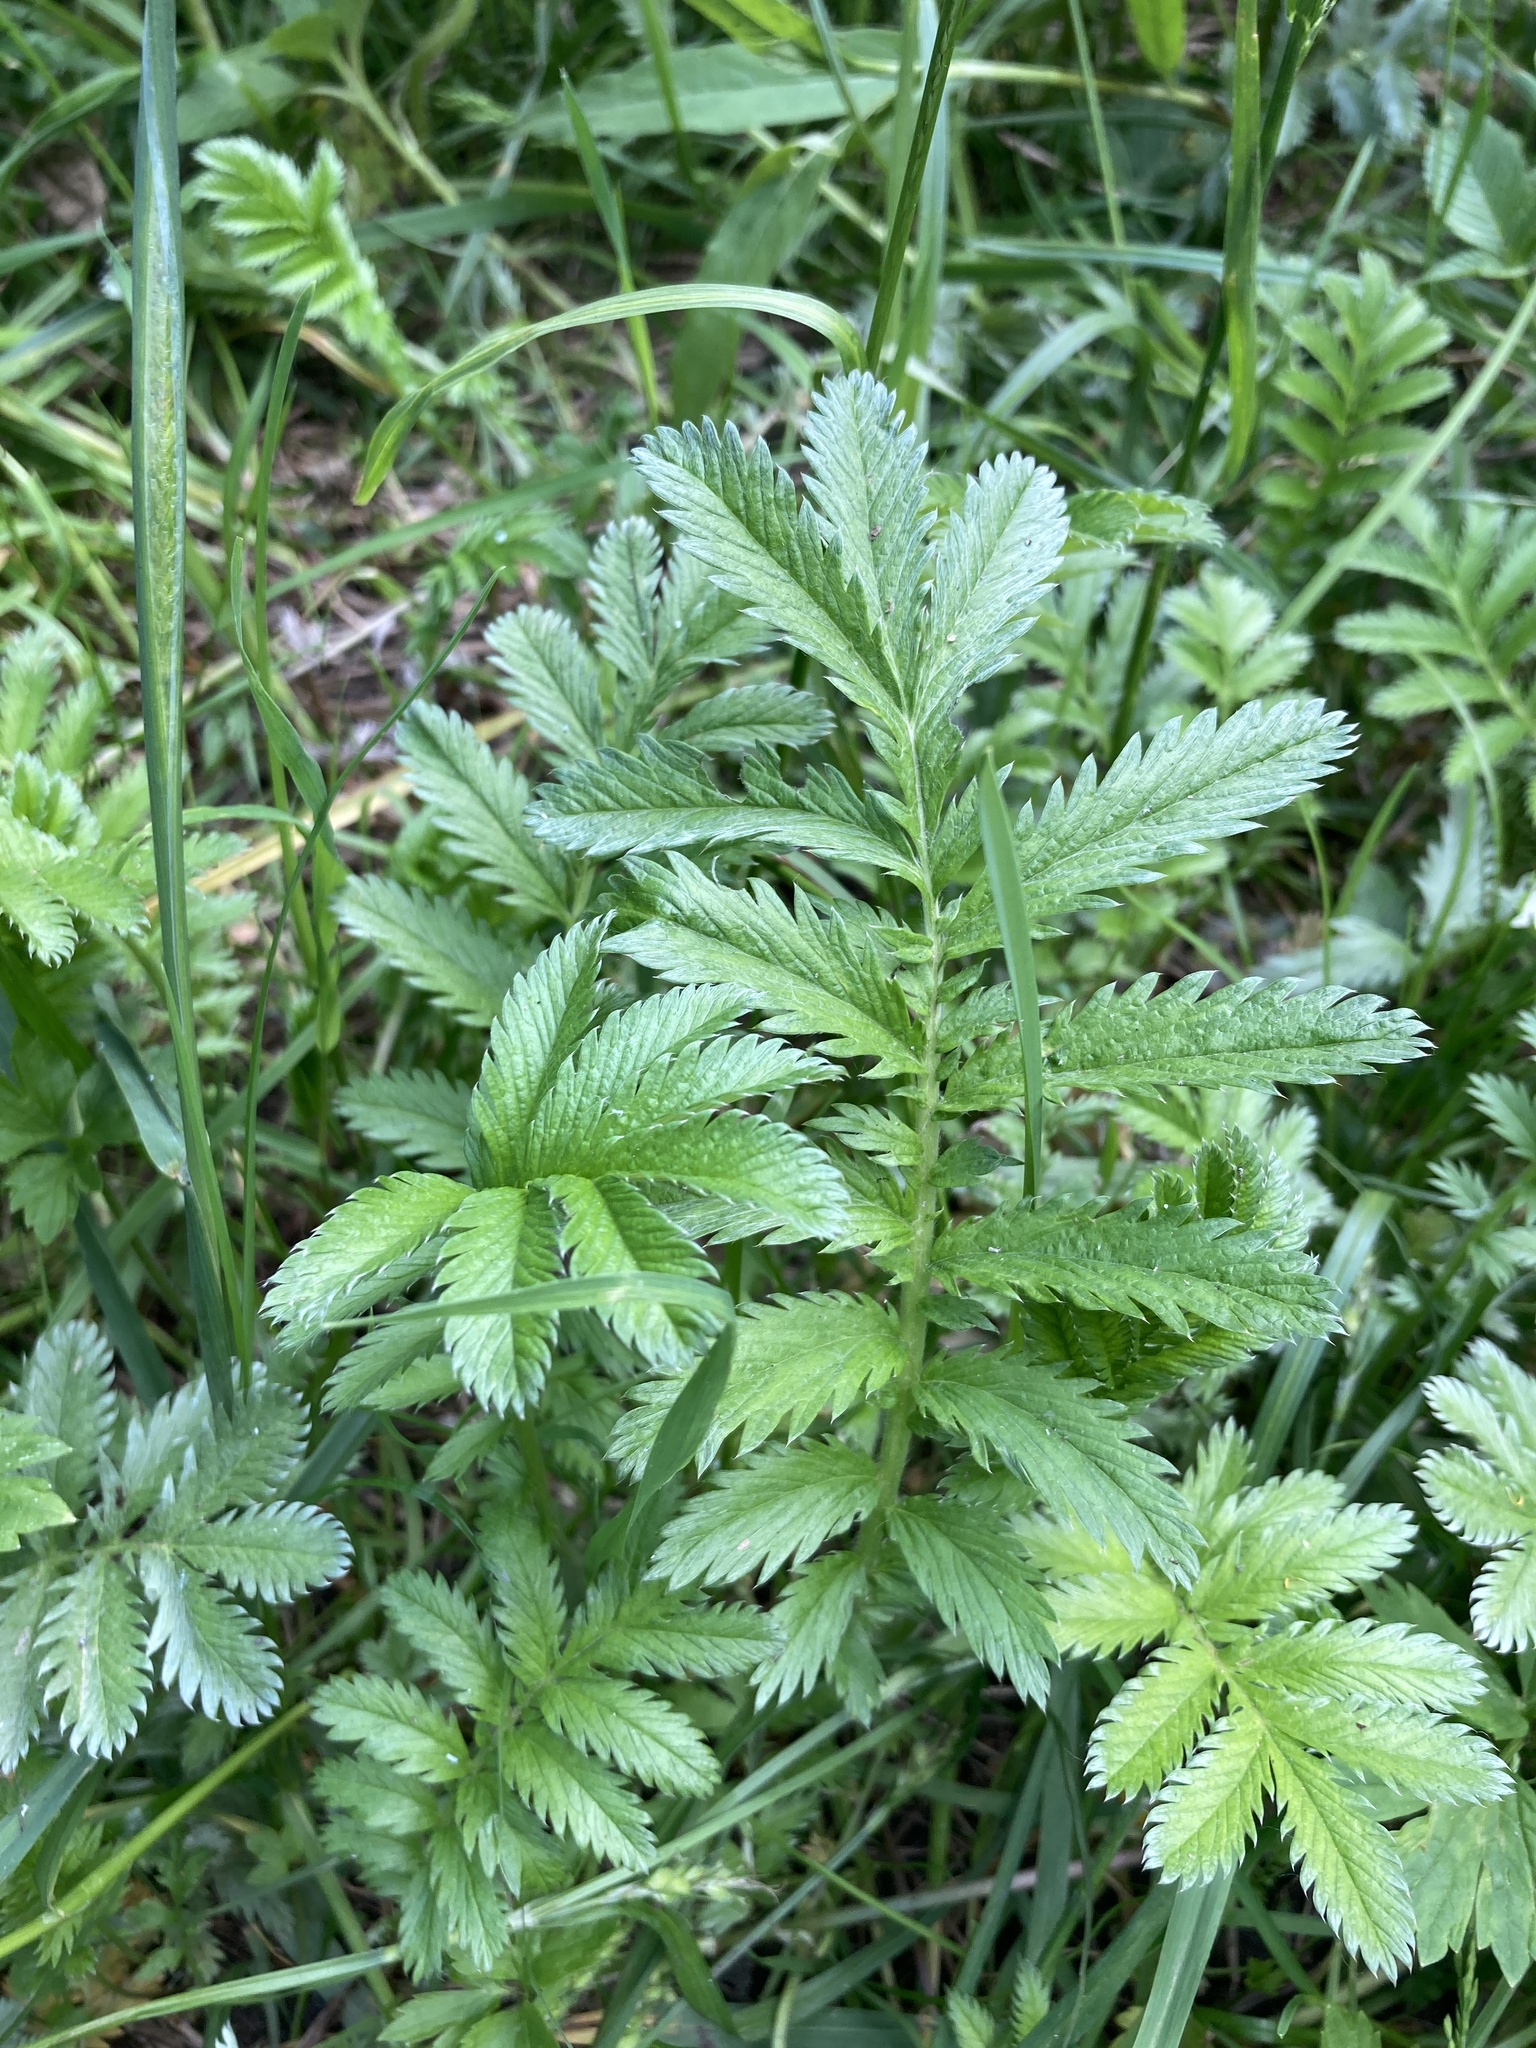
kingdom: Plantae
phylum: Tracheophyta
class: Magnoliopsida
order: Rosales
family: Rosaceae
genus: Argentina
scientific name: Argentina anserina
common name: Common silverweed
